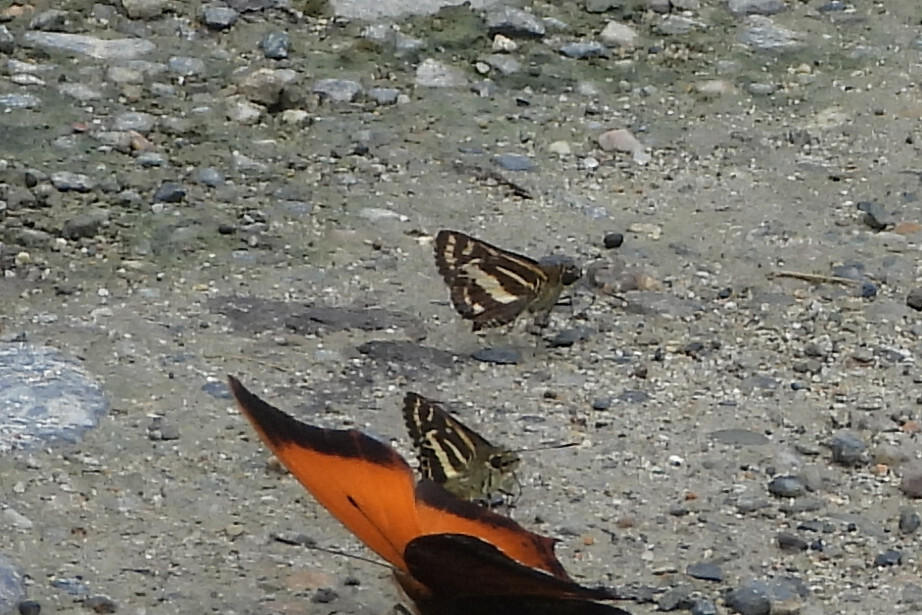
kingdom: Animalia
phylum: Arthropoda
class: Insecta
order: Lepidoptera
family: Hesperiidae
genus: Sebastonyma
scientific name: Sebastonyma dolopia
